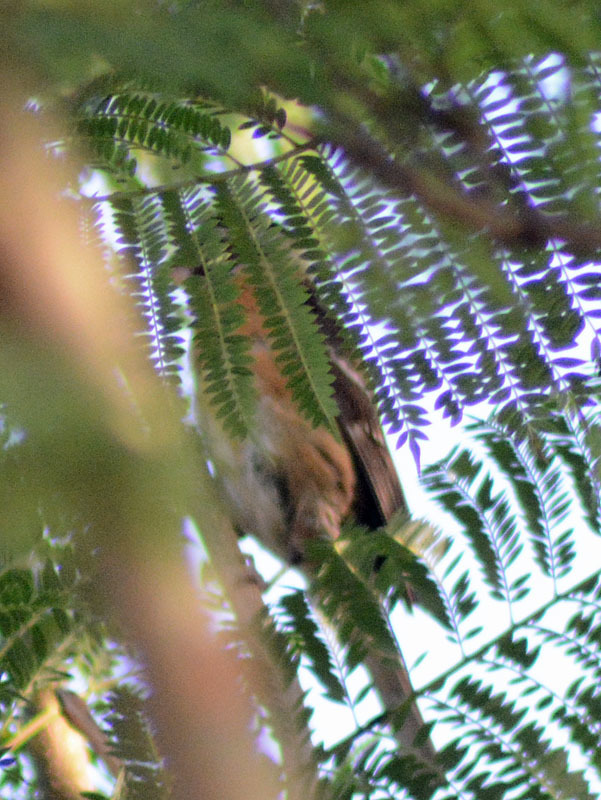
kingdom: Animalia
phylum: Chordata
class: Aves
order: Passeriformes
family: Cardinalidae
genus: Pheucticus
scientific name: Pheucticus melanocephalus
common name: Black-headed grosbeak
